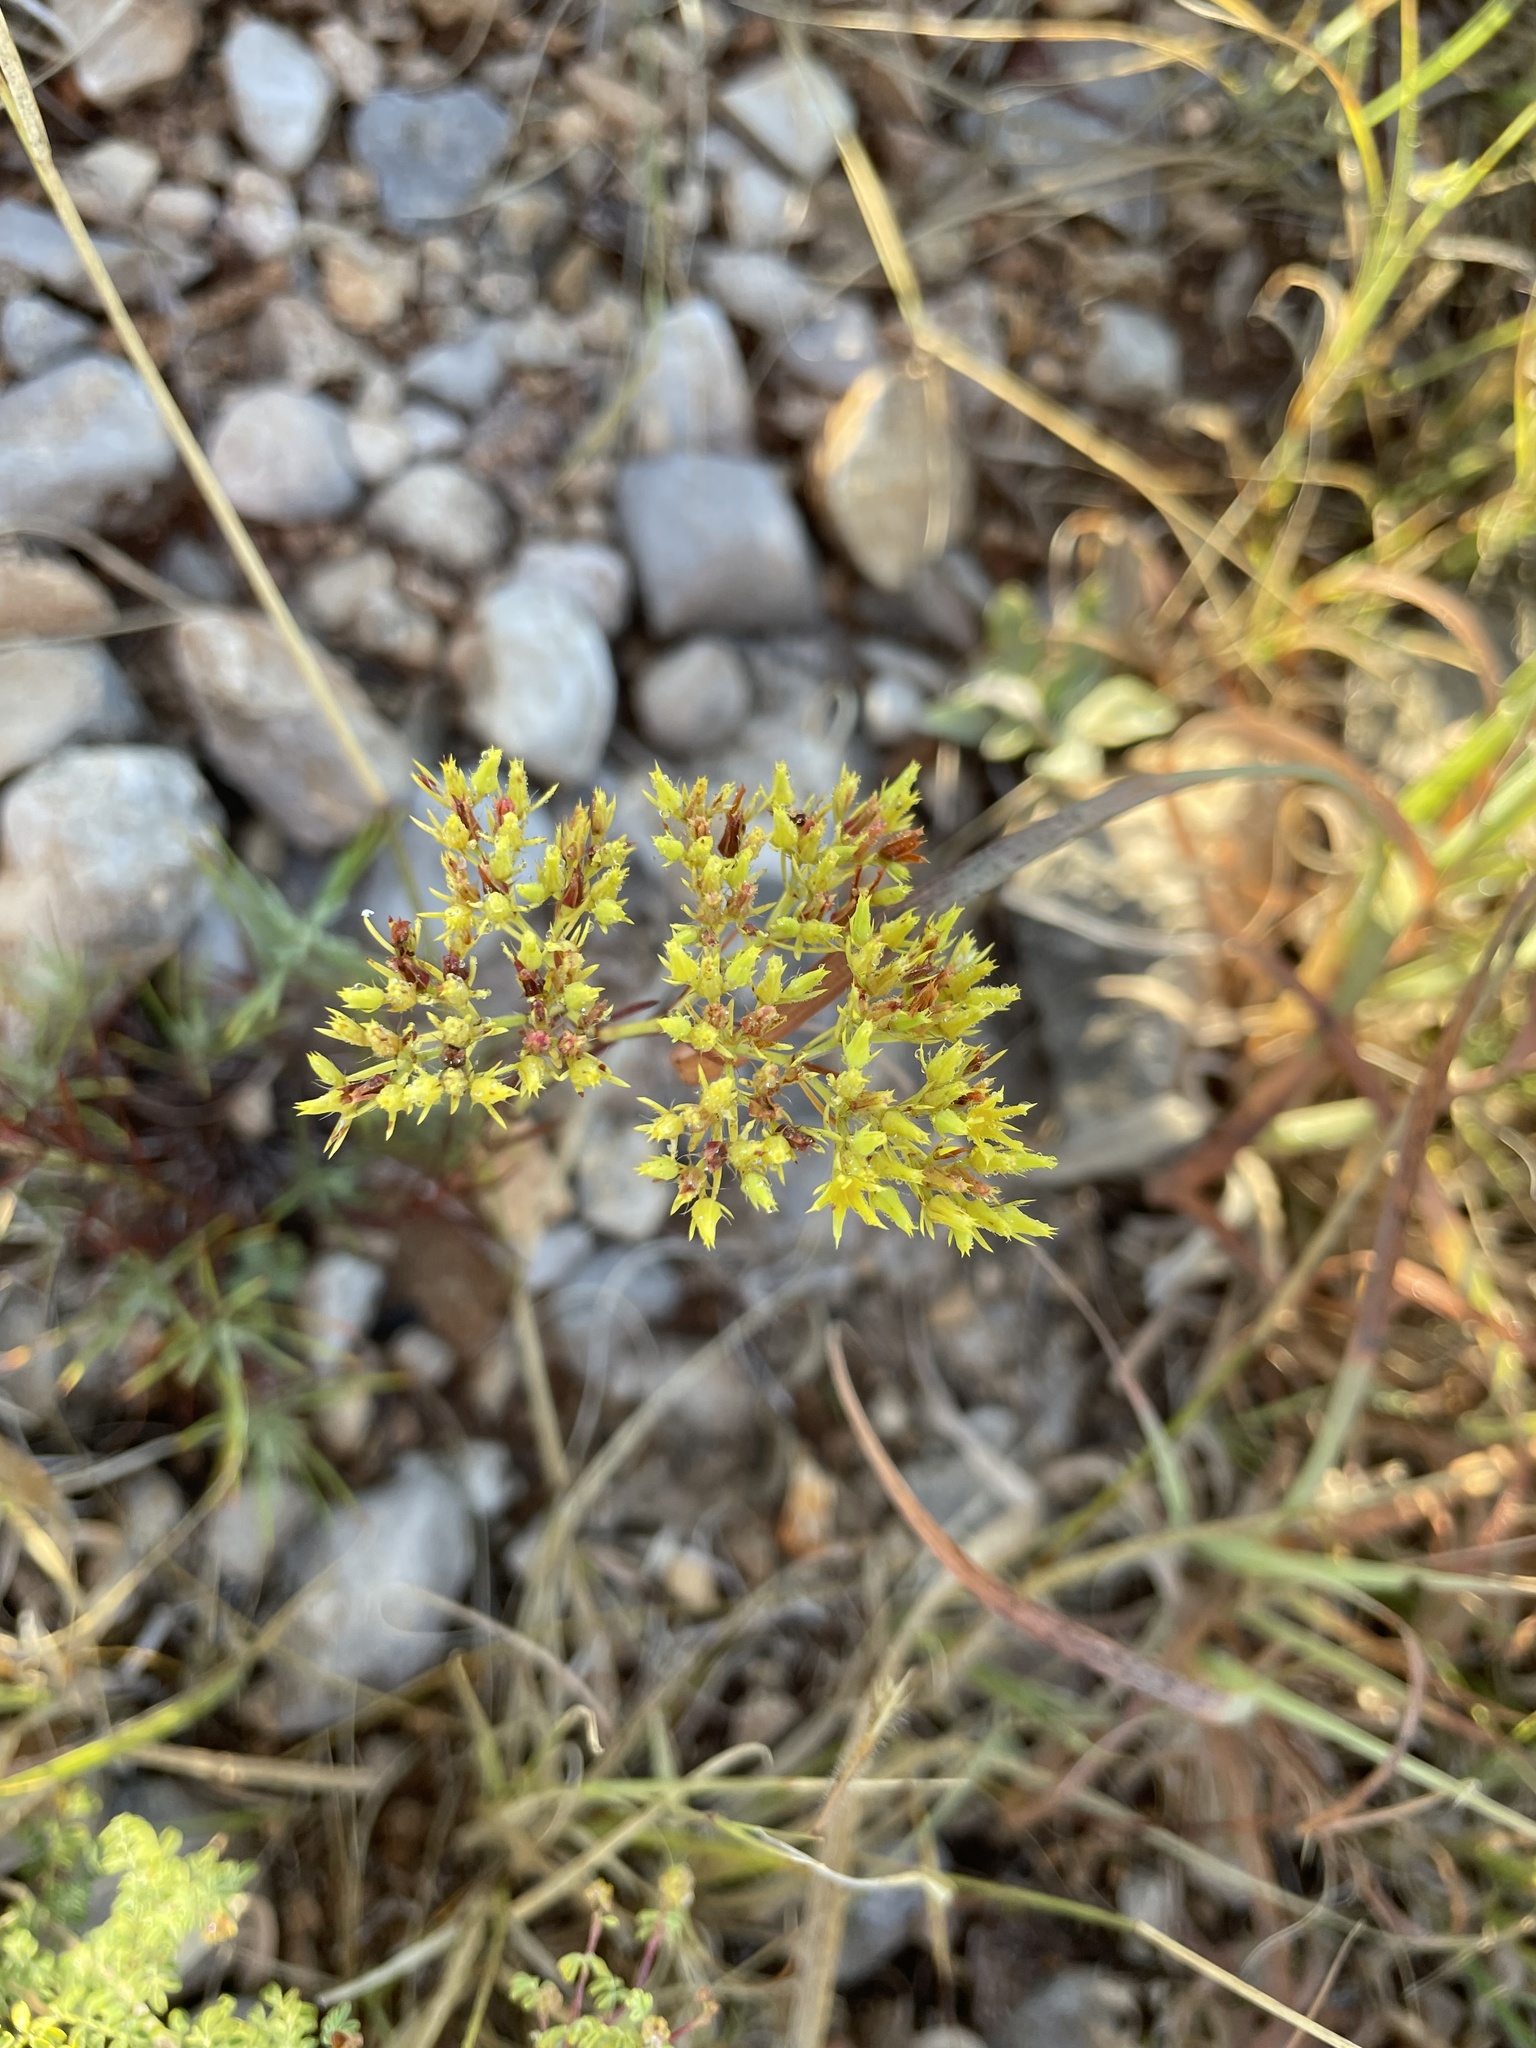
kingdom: Plantae
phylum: Tracheophyta
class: Magnoliopsida
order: Caryophyllales
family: Caryophyllaceae
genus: Paronychia
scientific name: Paronychia virginica
